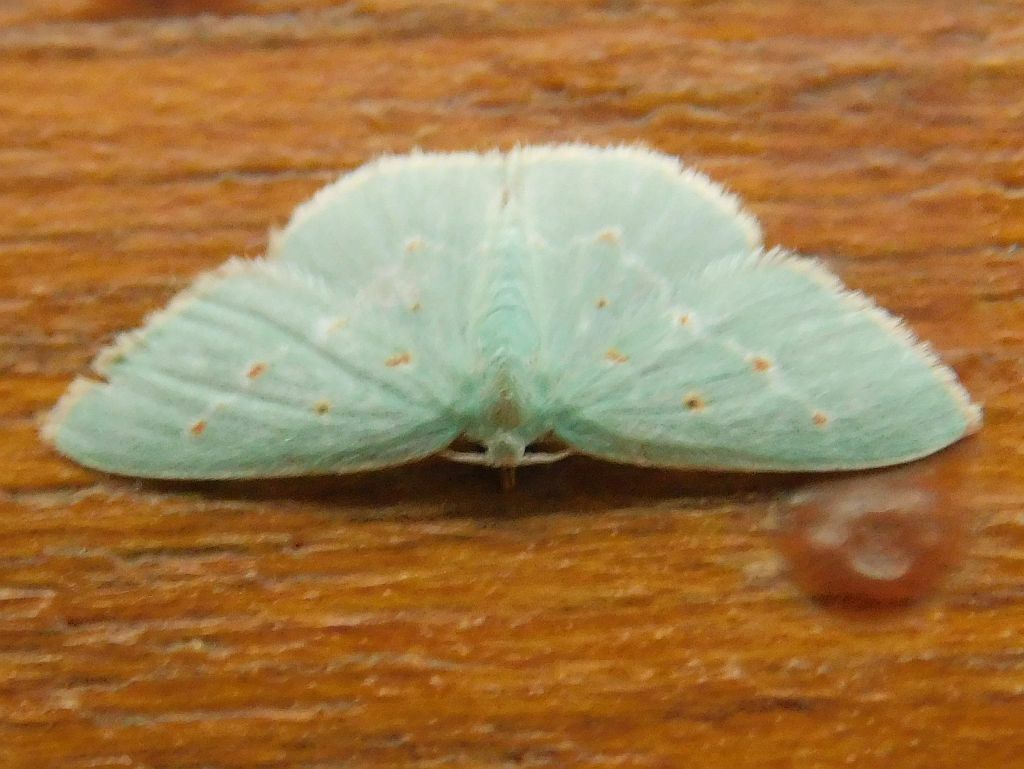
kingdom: Animalia
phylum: Arthropoda
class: Insecta
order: Lepidoptera
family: Geometridae
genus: Comostolopsis
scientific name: Comostolopsis stillata
